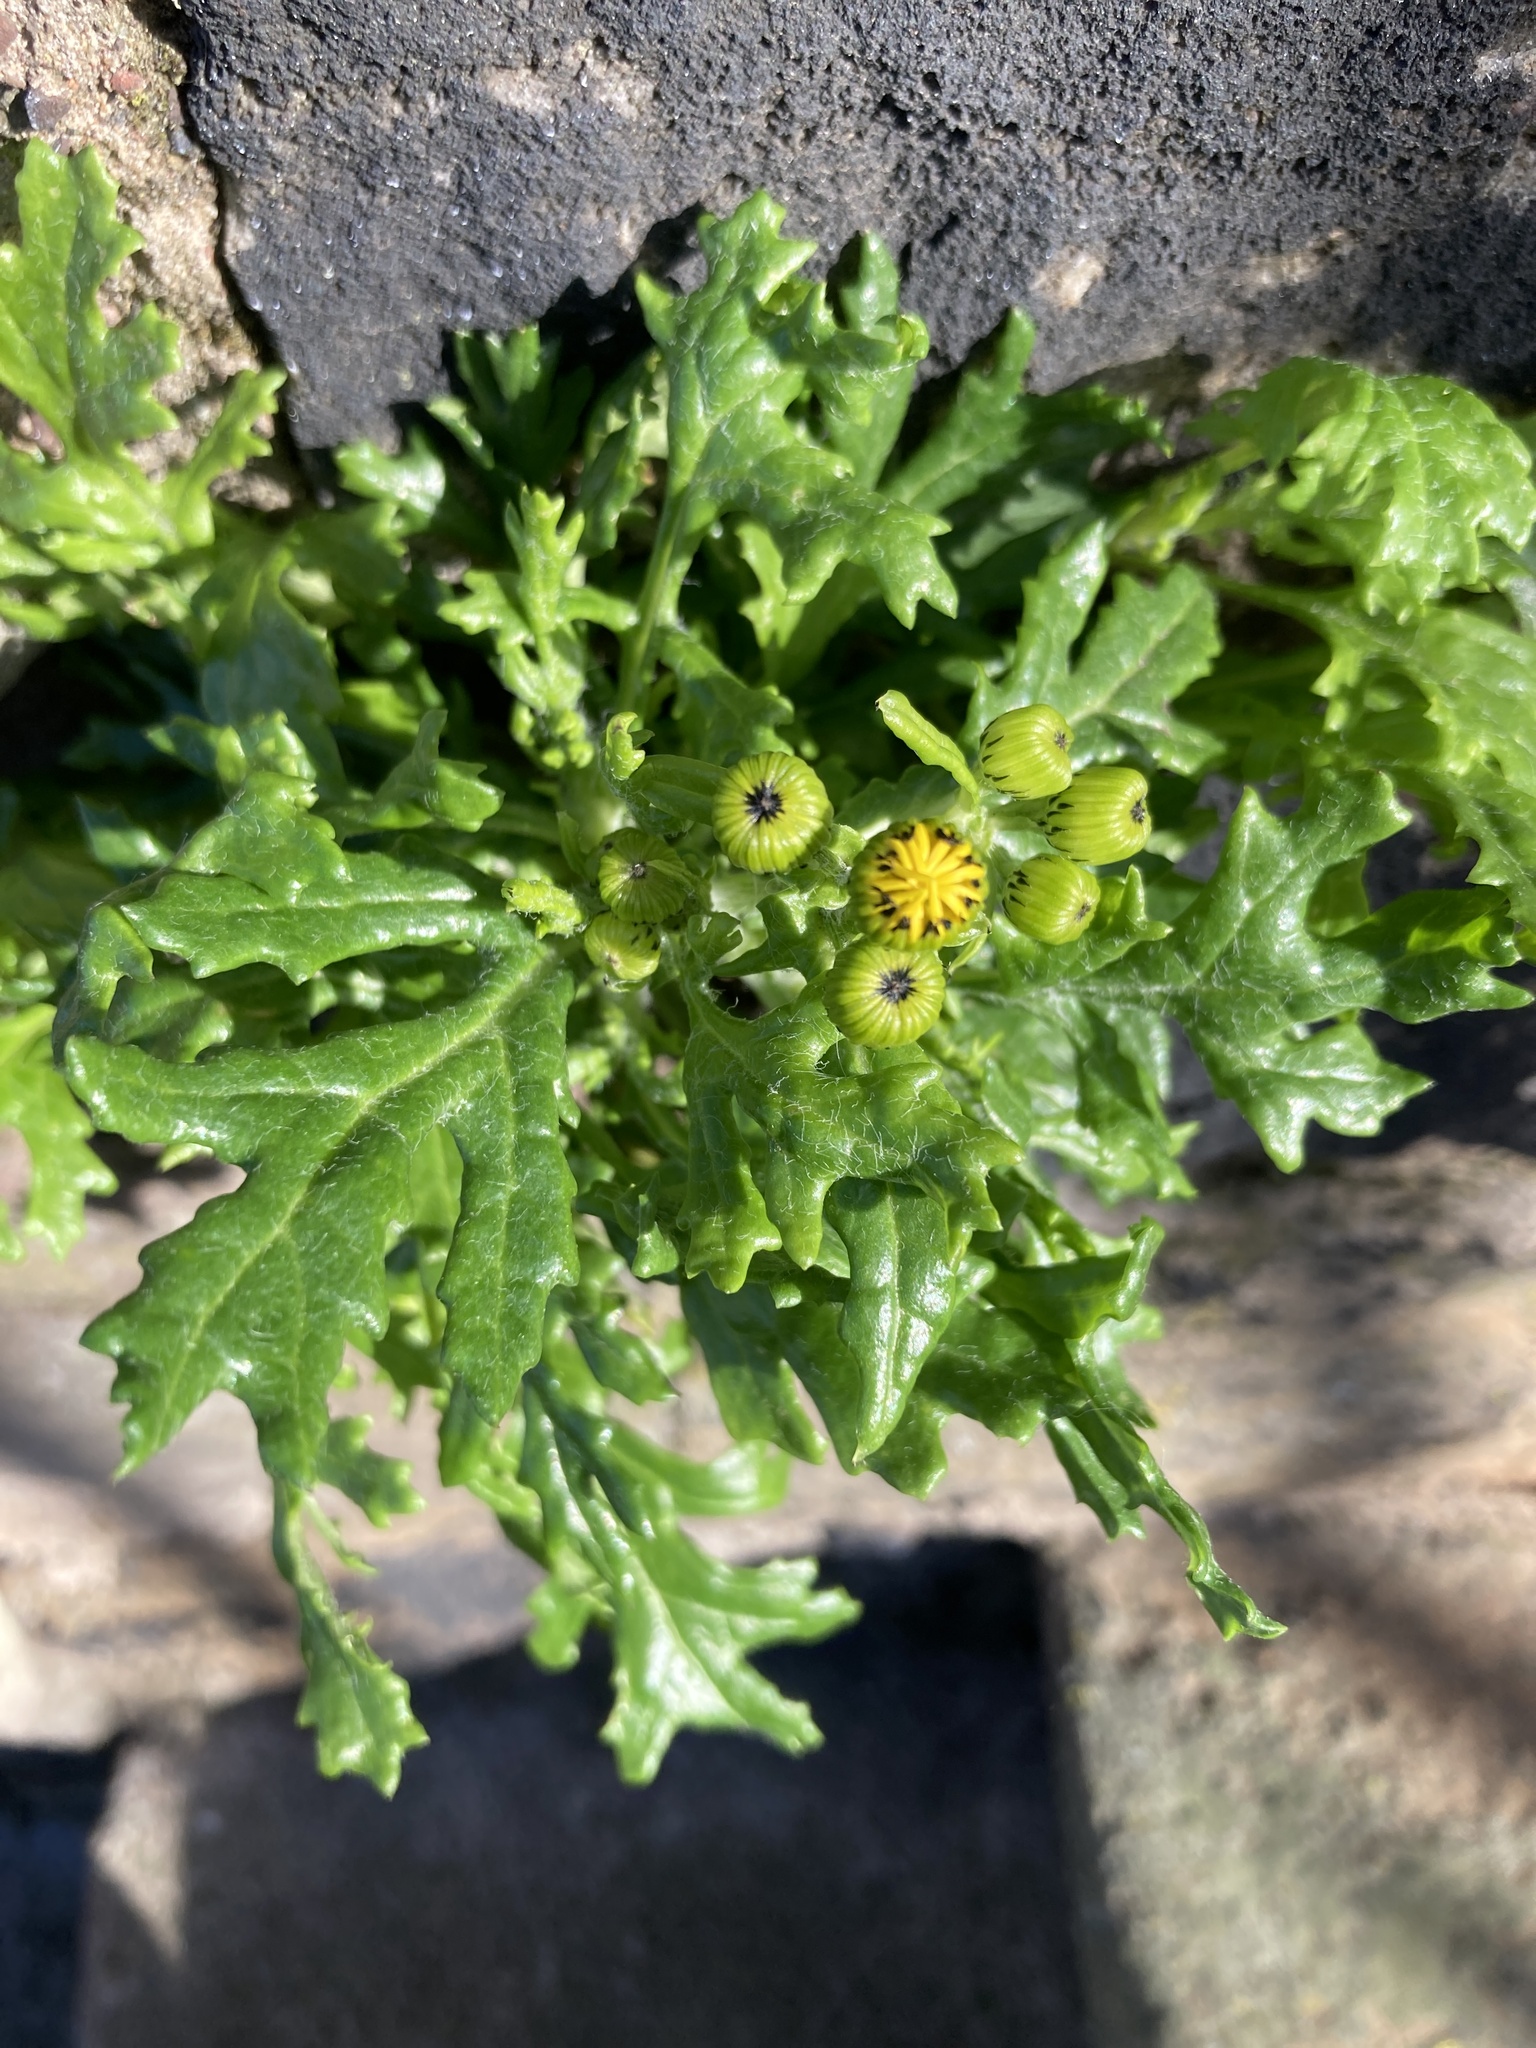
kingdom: Plantae
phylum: Tracheophyta
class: Magnoliopsida
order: Asterales
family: Asteraceae
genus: Senecio
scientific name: Senecio vulgaris
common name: Old-man-in-the-spring
